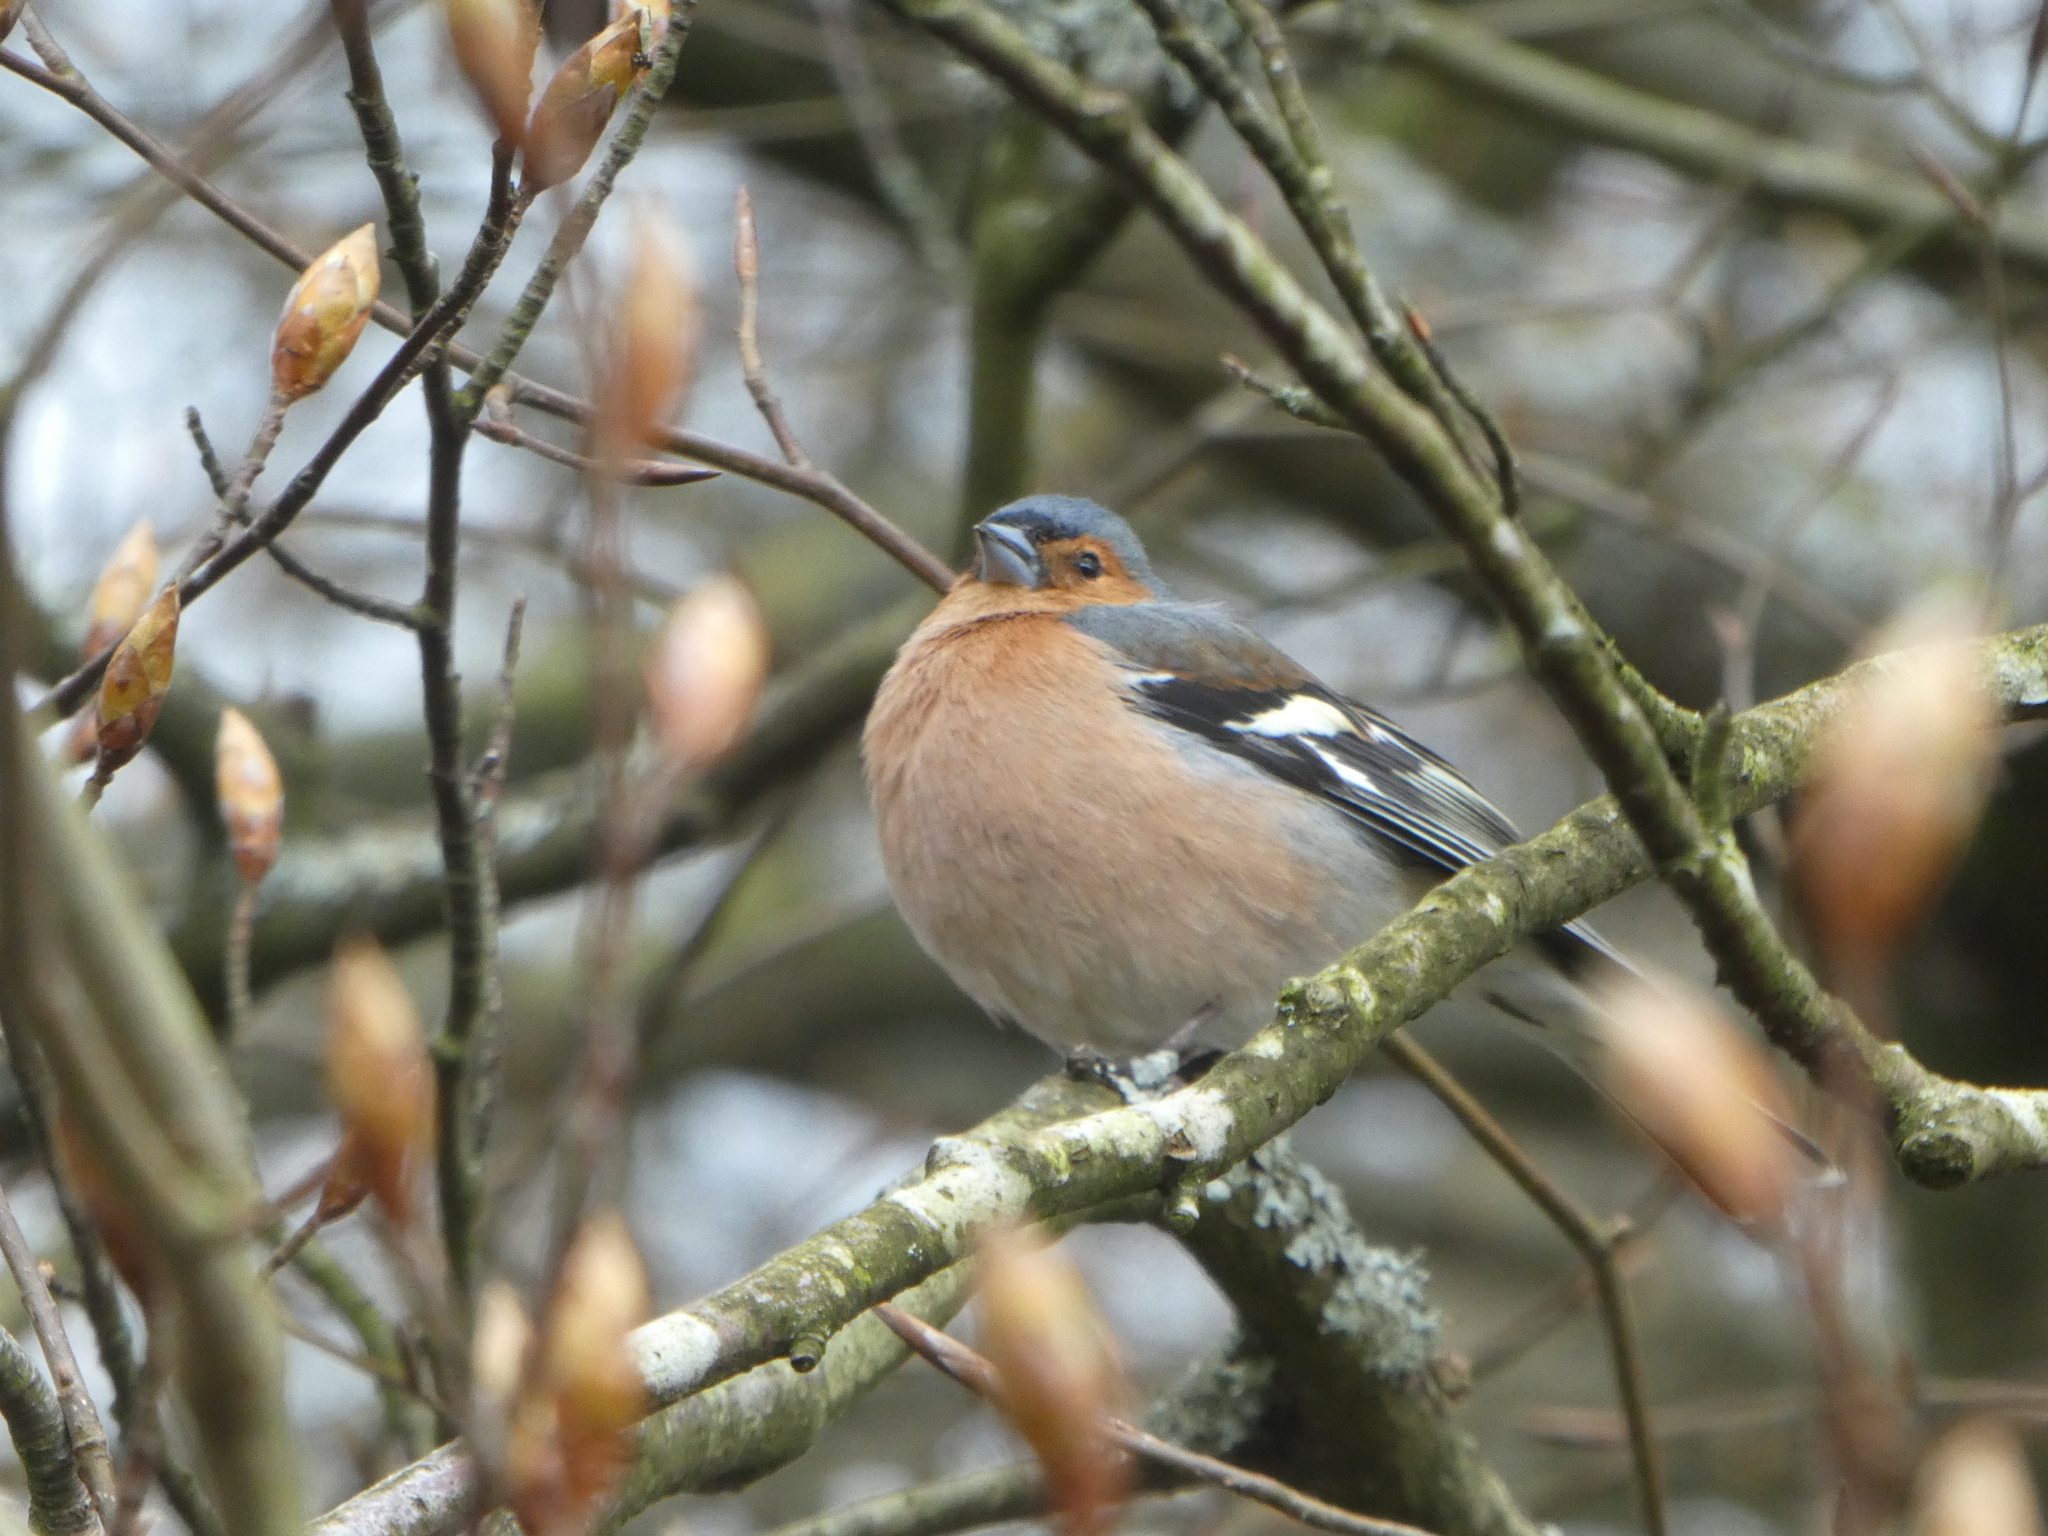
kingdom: Animalia
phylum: Chordata
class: Aves
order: Passeriformes
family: Fringillidae
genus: Fringilla
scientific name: Fringilla coelebs
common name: Common chaffinch
